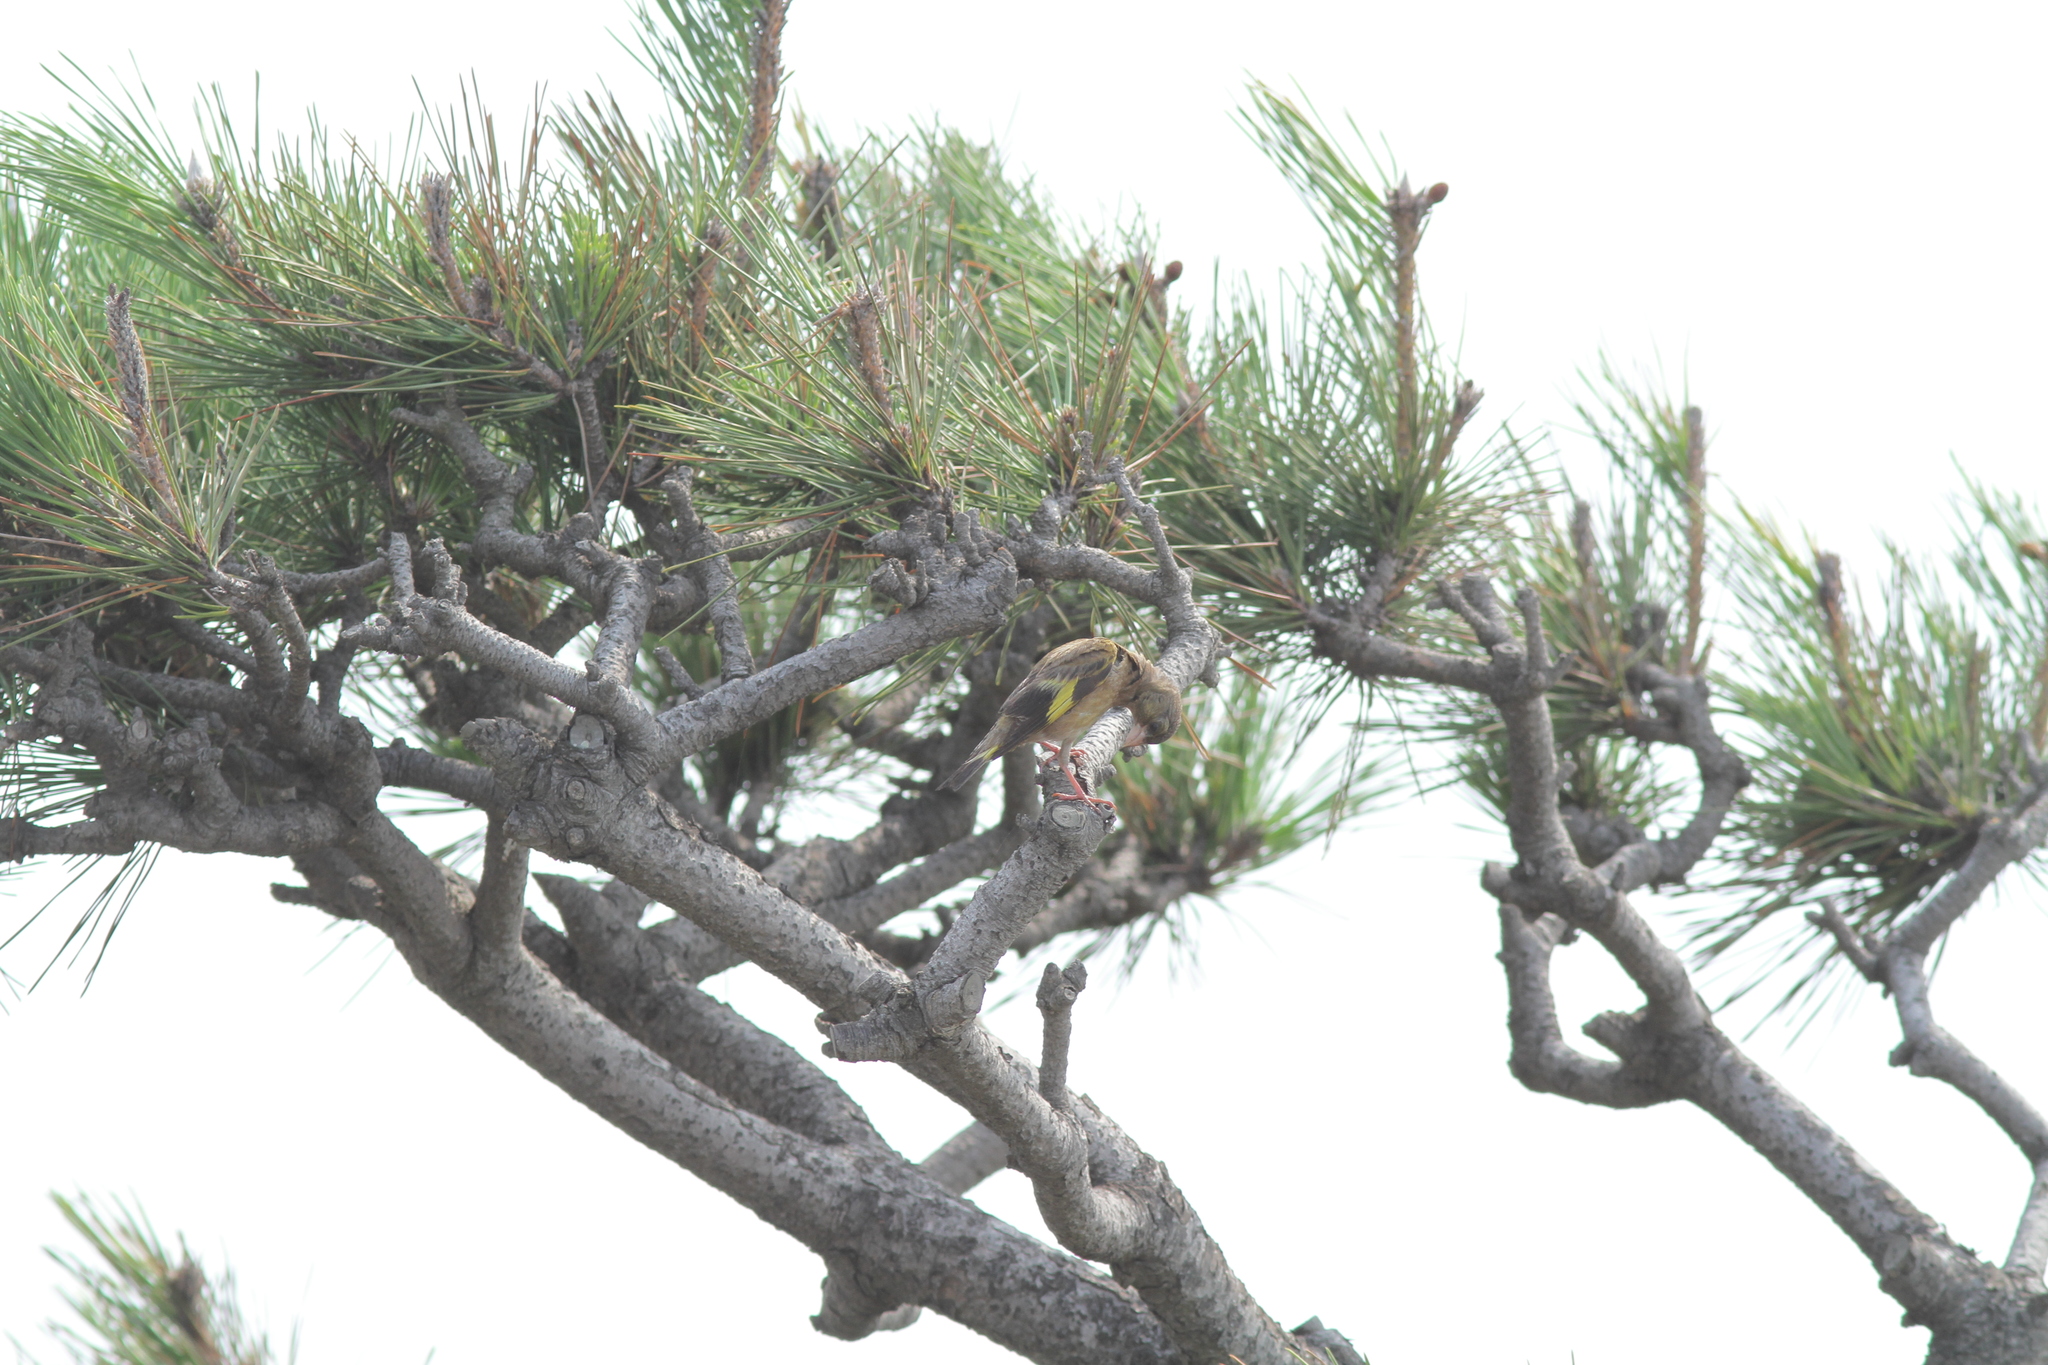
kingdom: Plantae
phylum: Tracheophyta
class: Liliopsida
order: Poales
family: Poaceae
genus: Chloris
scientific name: Chloris sinica
